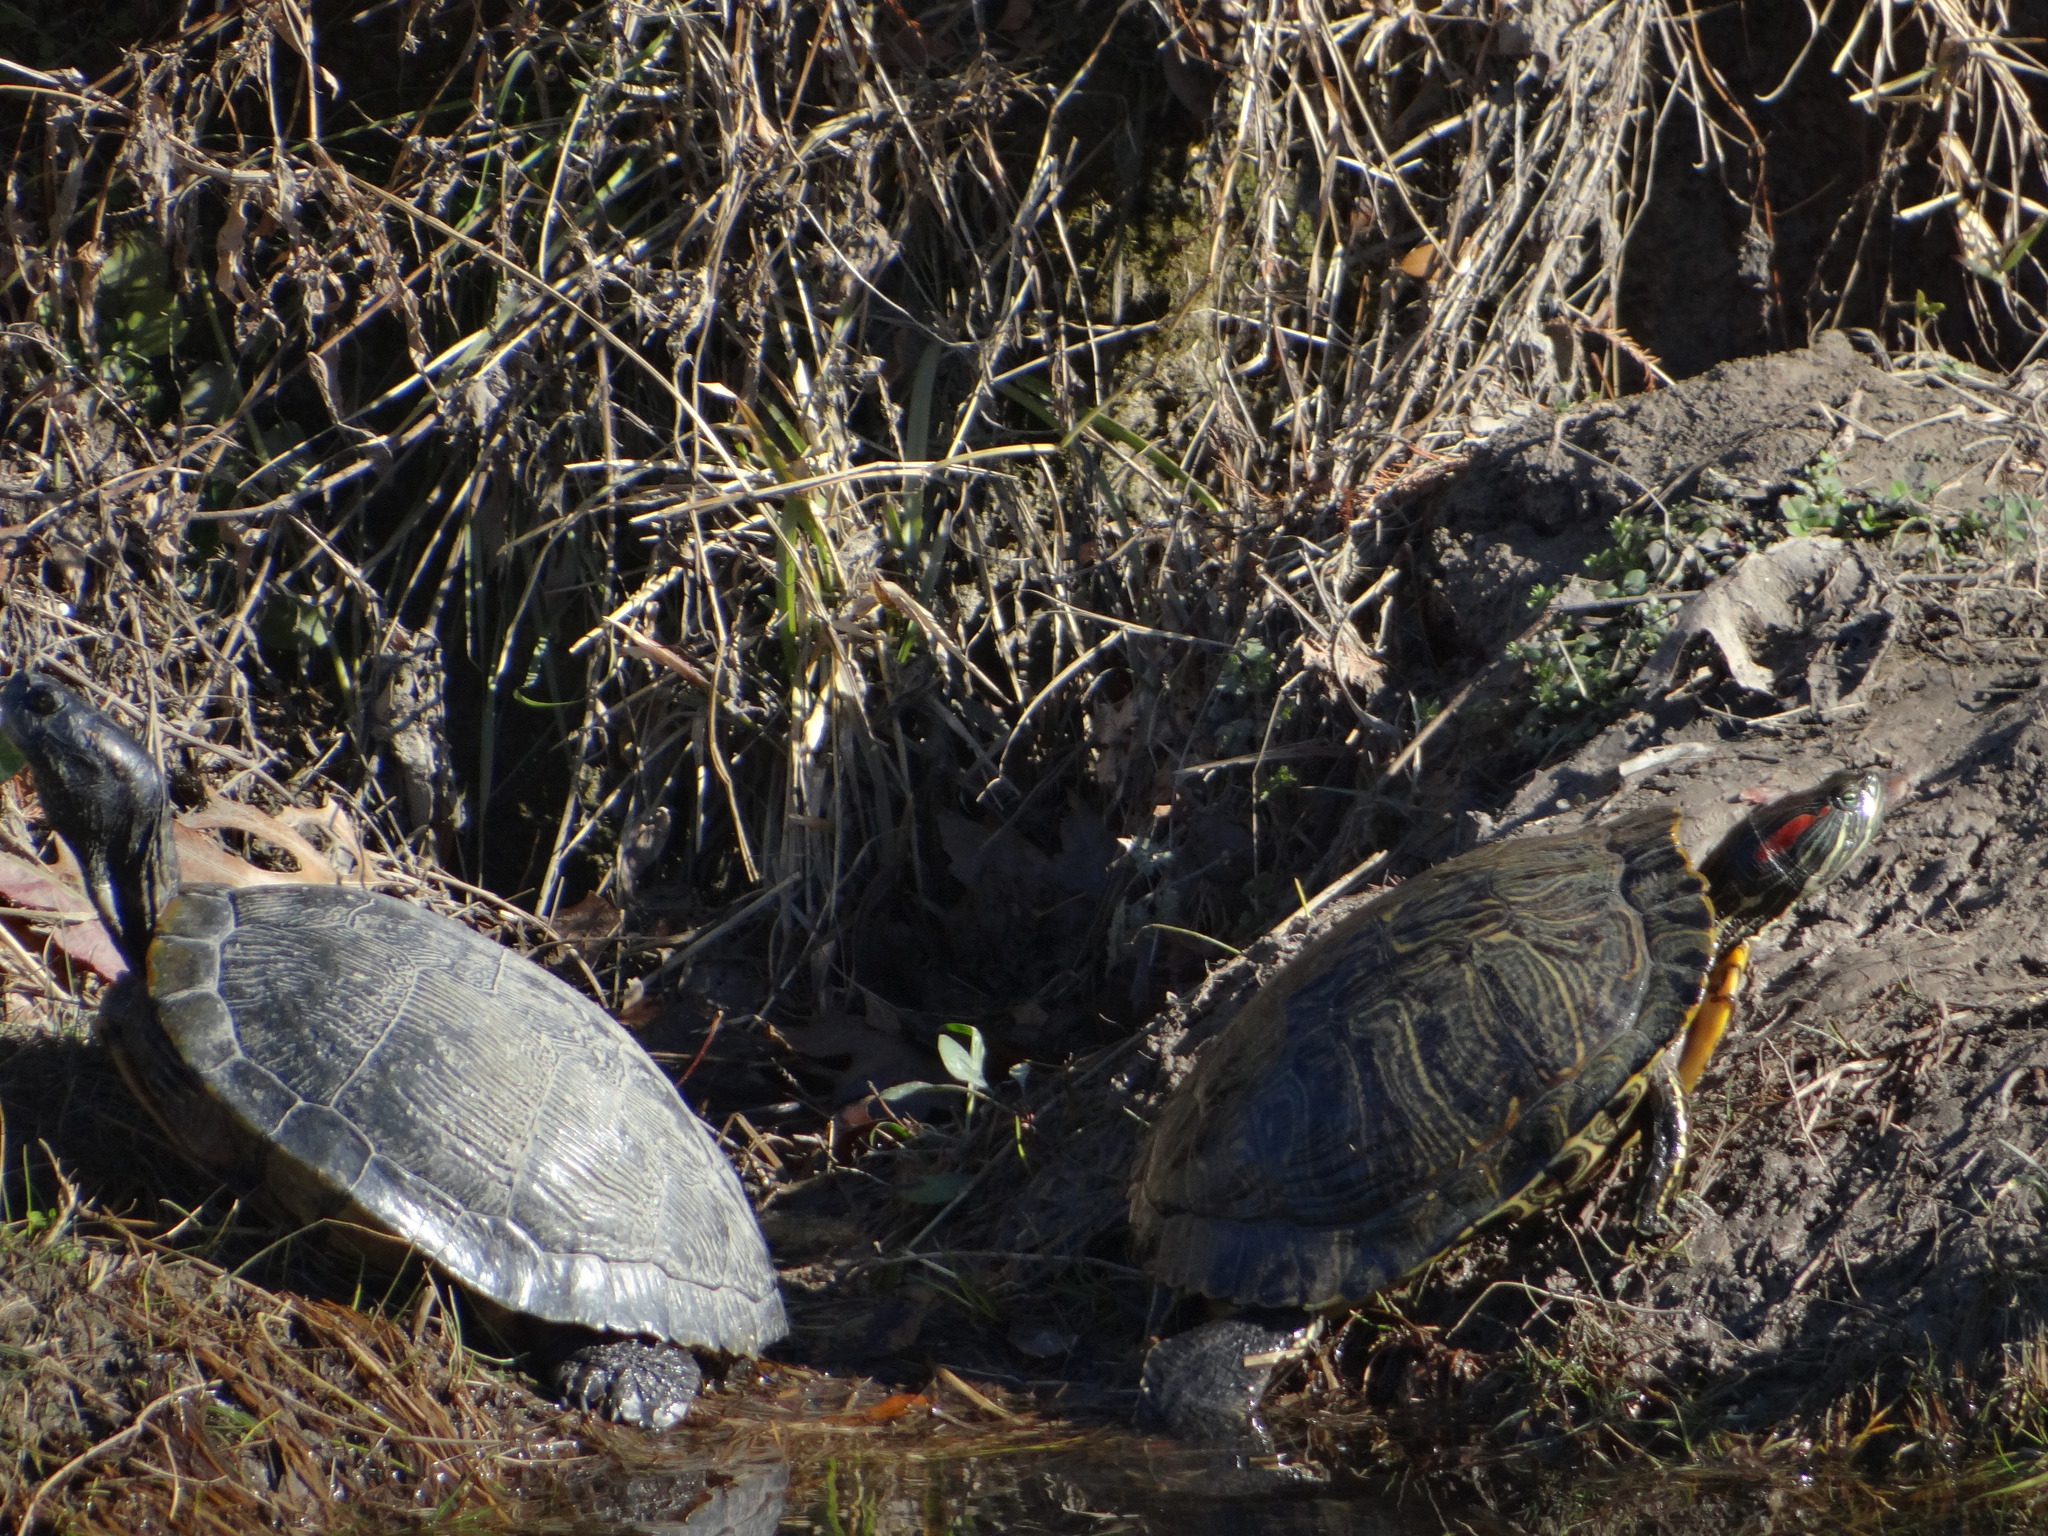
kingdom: Animalia
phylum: Chordata
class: Testudines
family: Emydidae
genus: Trachemys
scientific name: Trachemys scripta
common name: Slider
